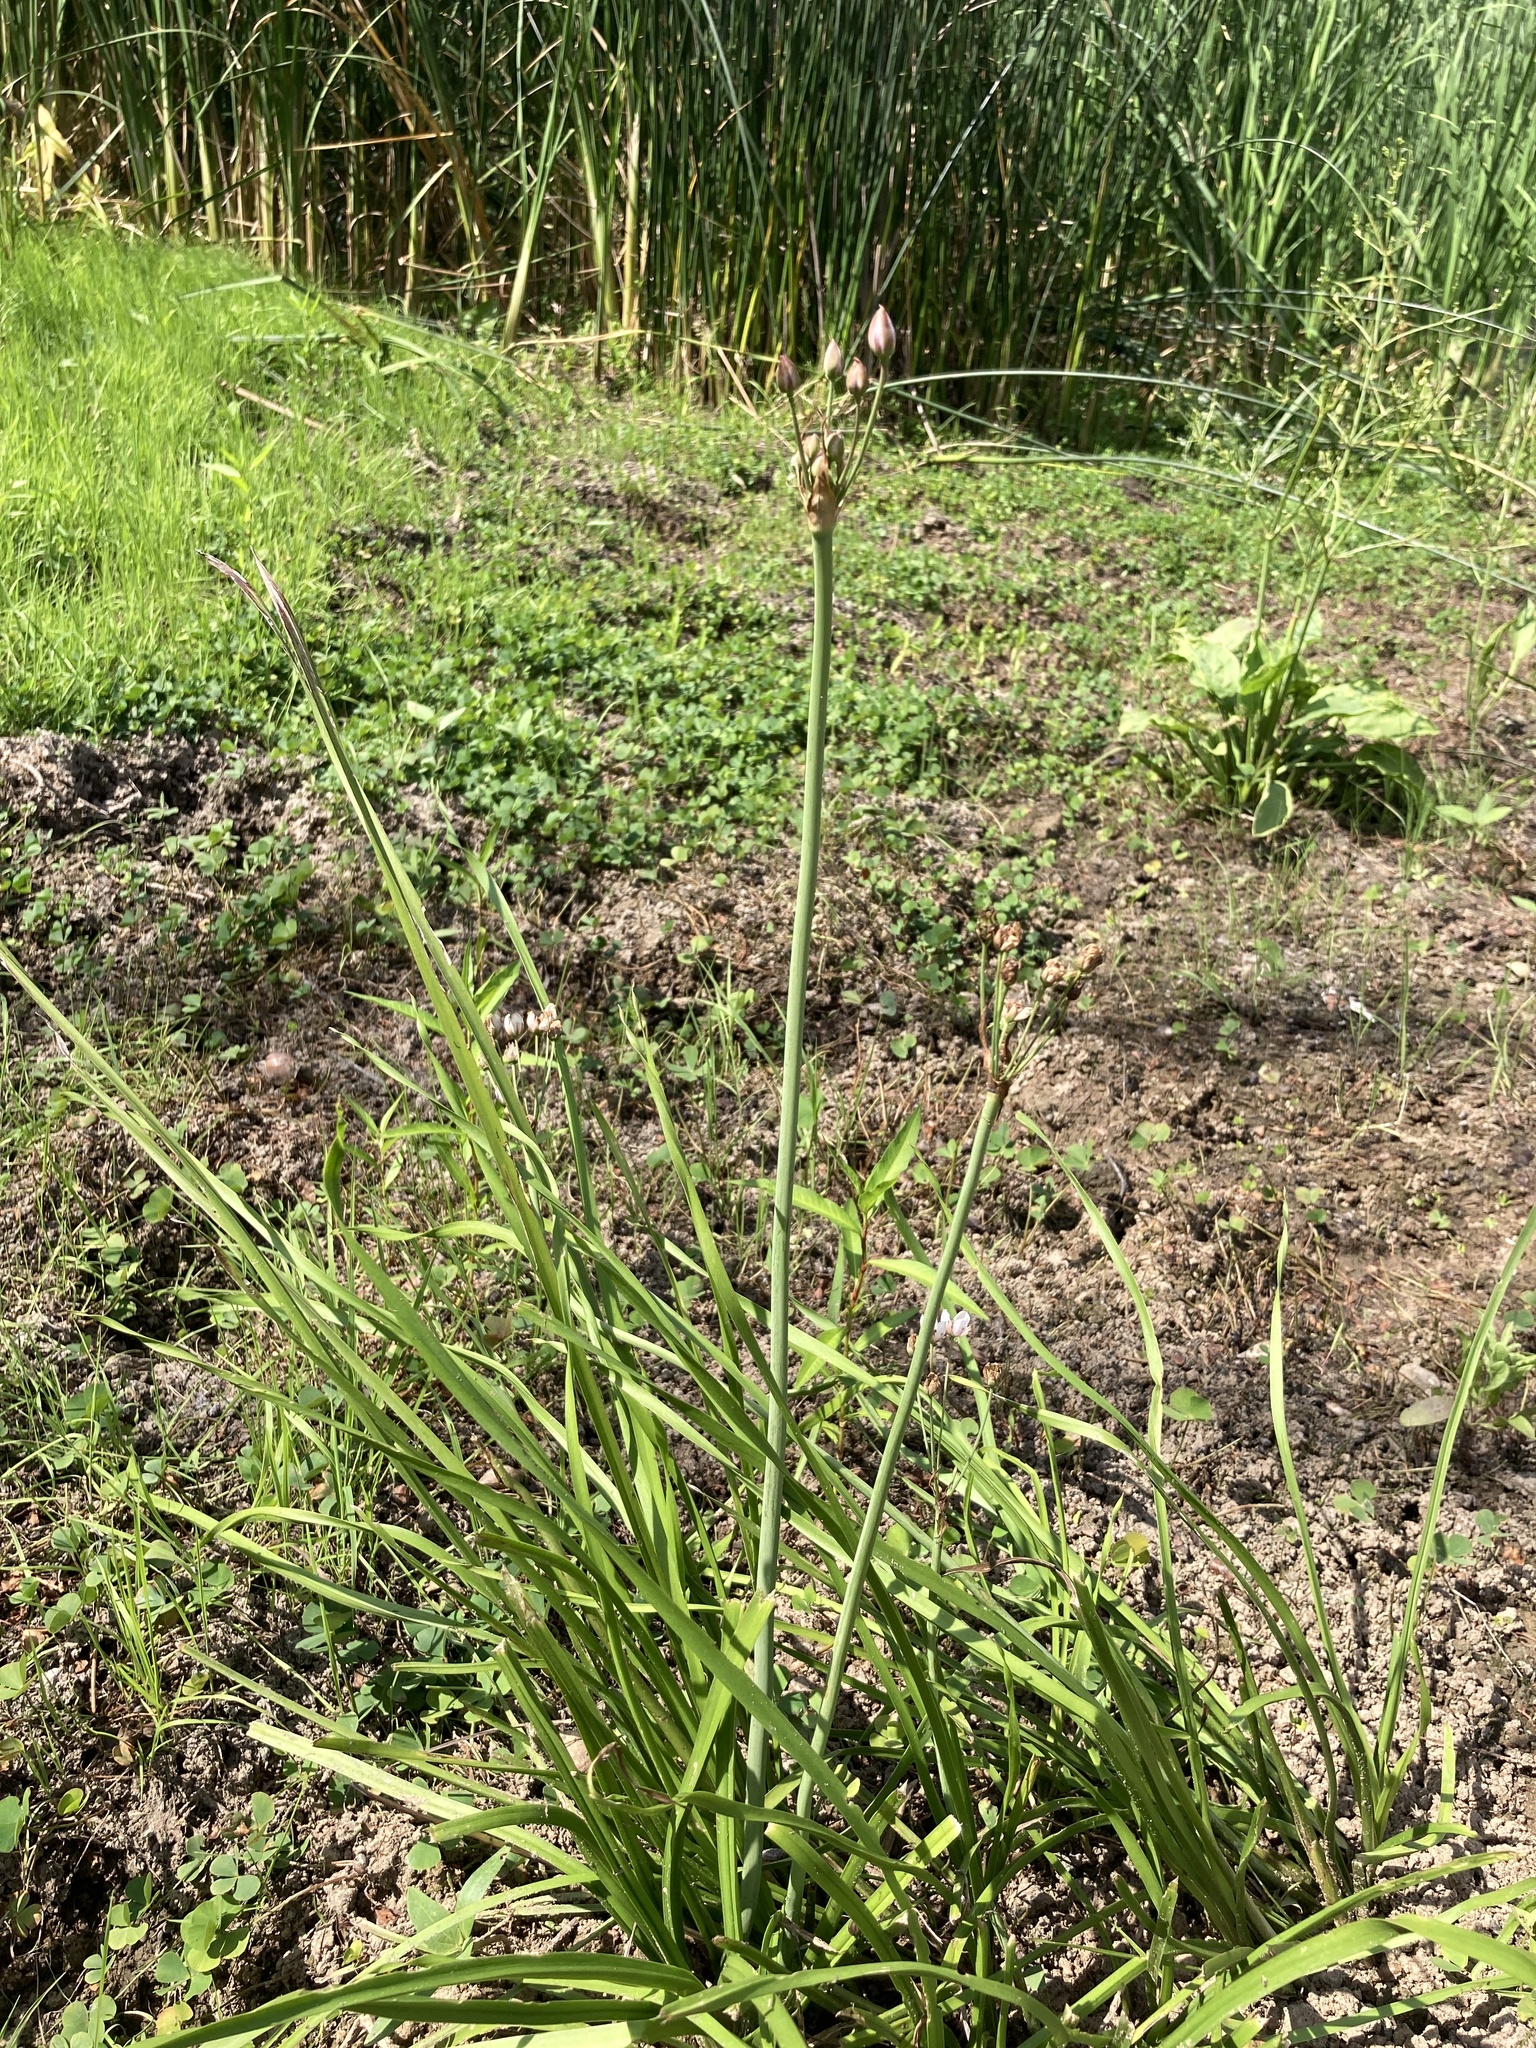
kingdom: Plantae
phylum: Tracheophyta
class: Liliopsida
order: Alismatales
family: Butomaceae
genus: Butomus
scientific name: Butomus umbellatus
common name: Flowering-rush
